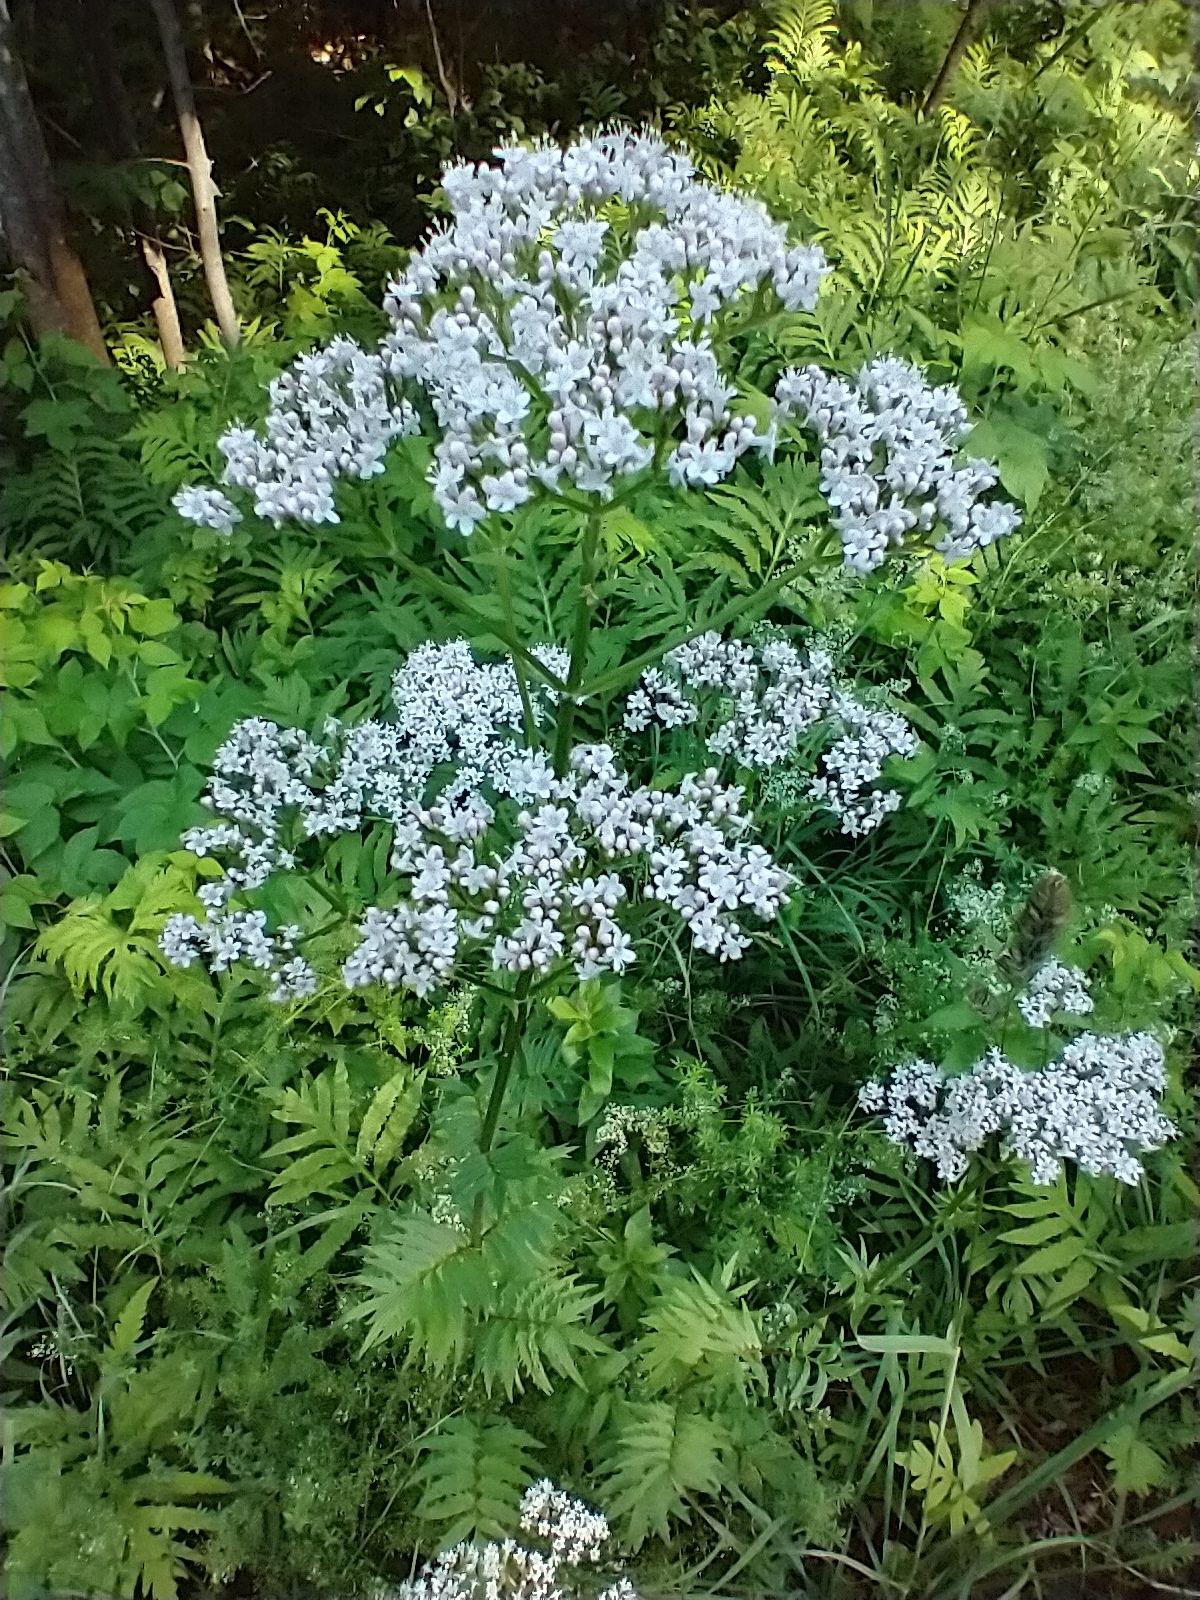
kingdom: Plantae
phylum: Tracheophyta
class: Magnoliopsida
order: Dipsacales
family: Caprifoliaceae
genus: Valeriana
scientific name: Valeriana officinalis
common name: Common valerian
